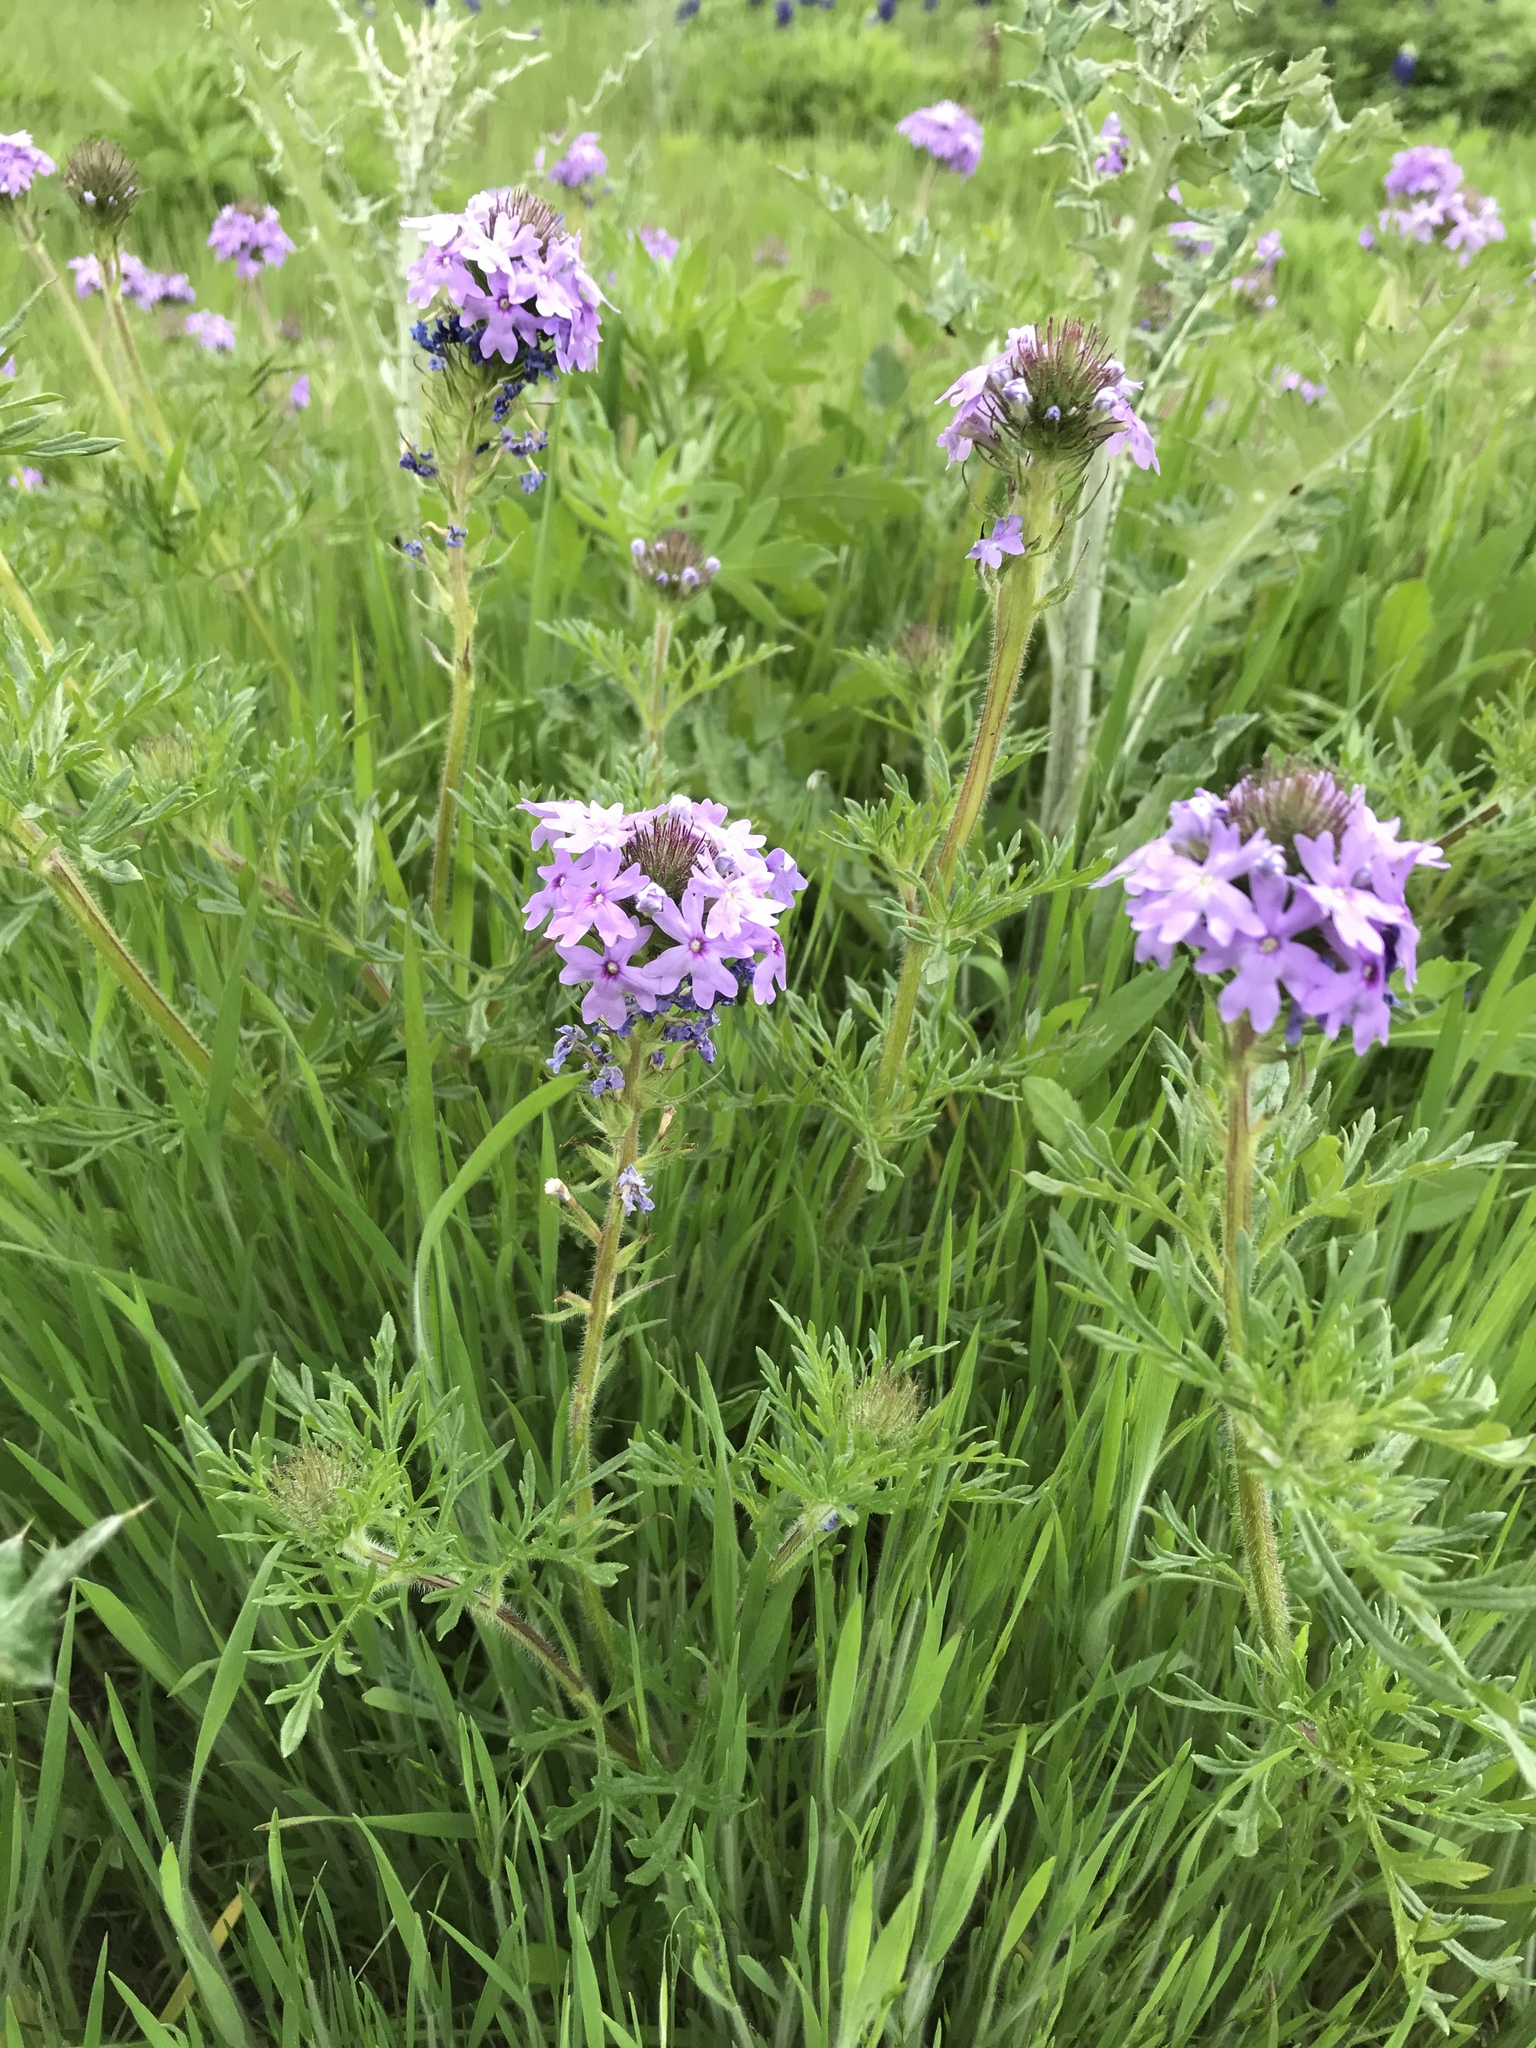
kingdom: Plantae
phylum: Tracheophyta
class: Magnoliopsida
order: Lamiales
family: Verbenaceae
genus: Verbena
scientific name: Verbena bipinnatifida
